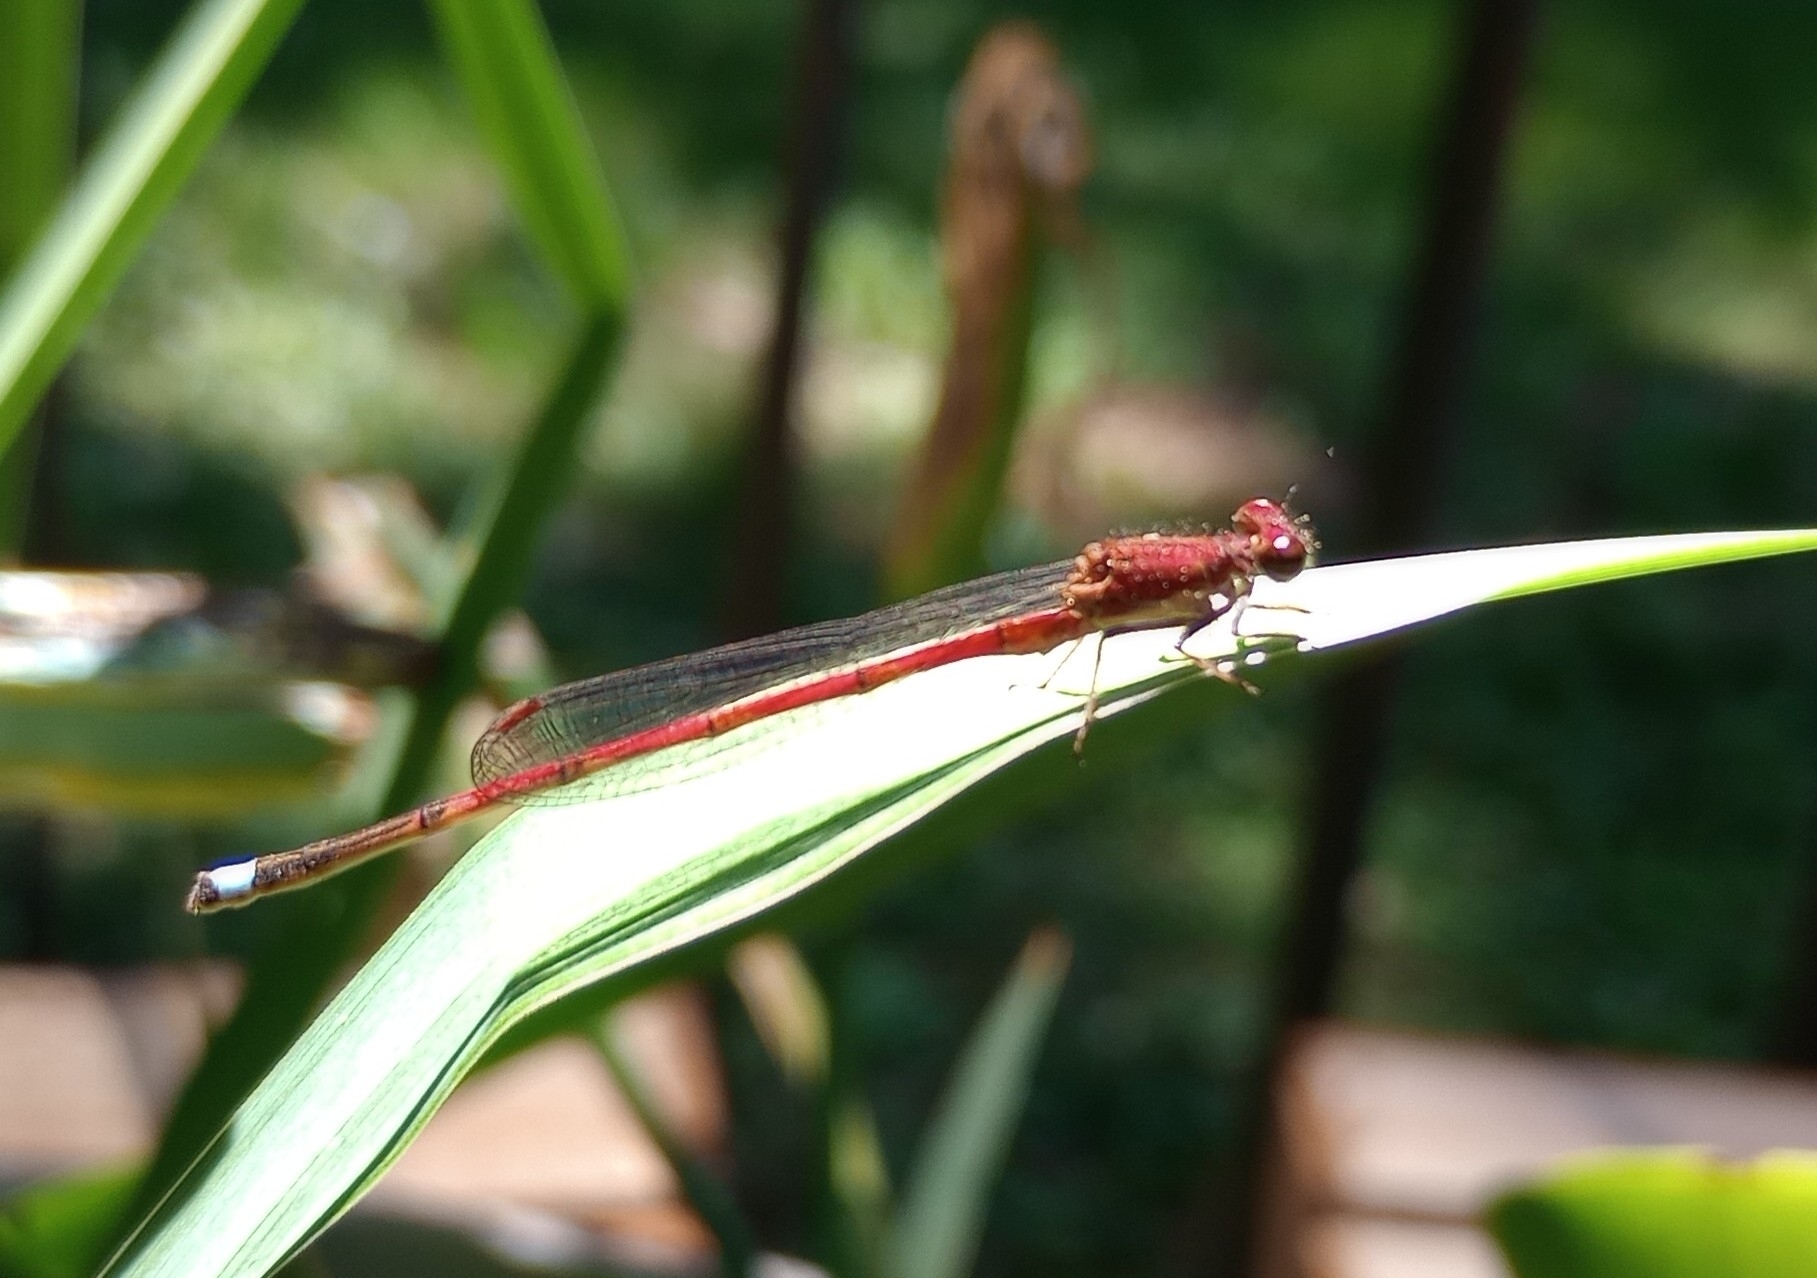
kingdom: Animalia
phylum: Arthropoda
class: Insecta
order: Odonata
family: Coenagrionidae
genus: Oxyagrion
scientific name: Oxyagrion terminale
